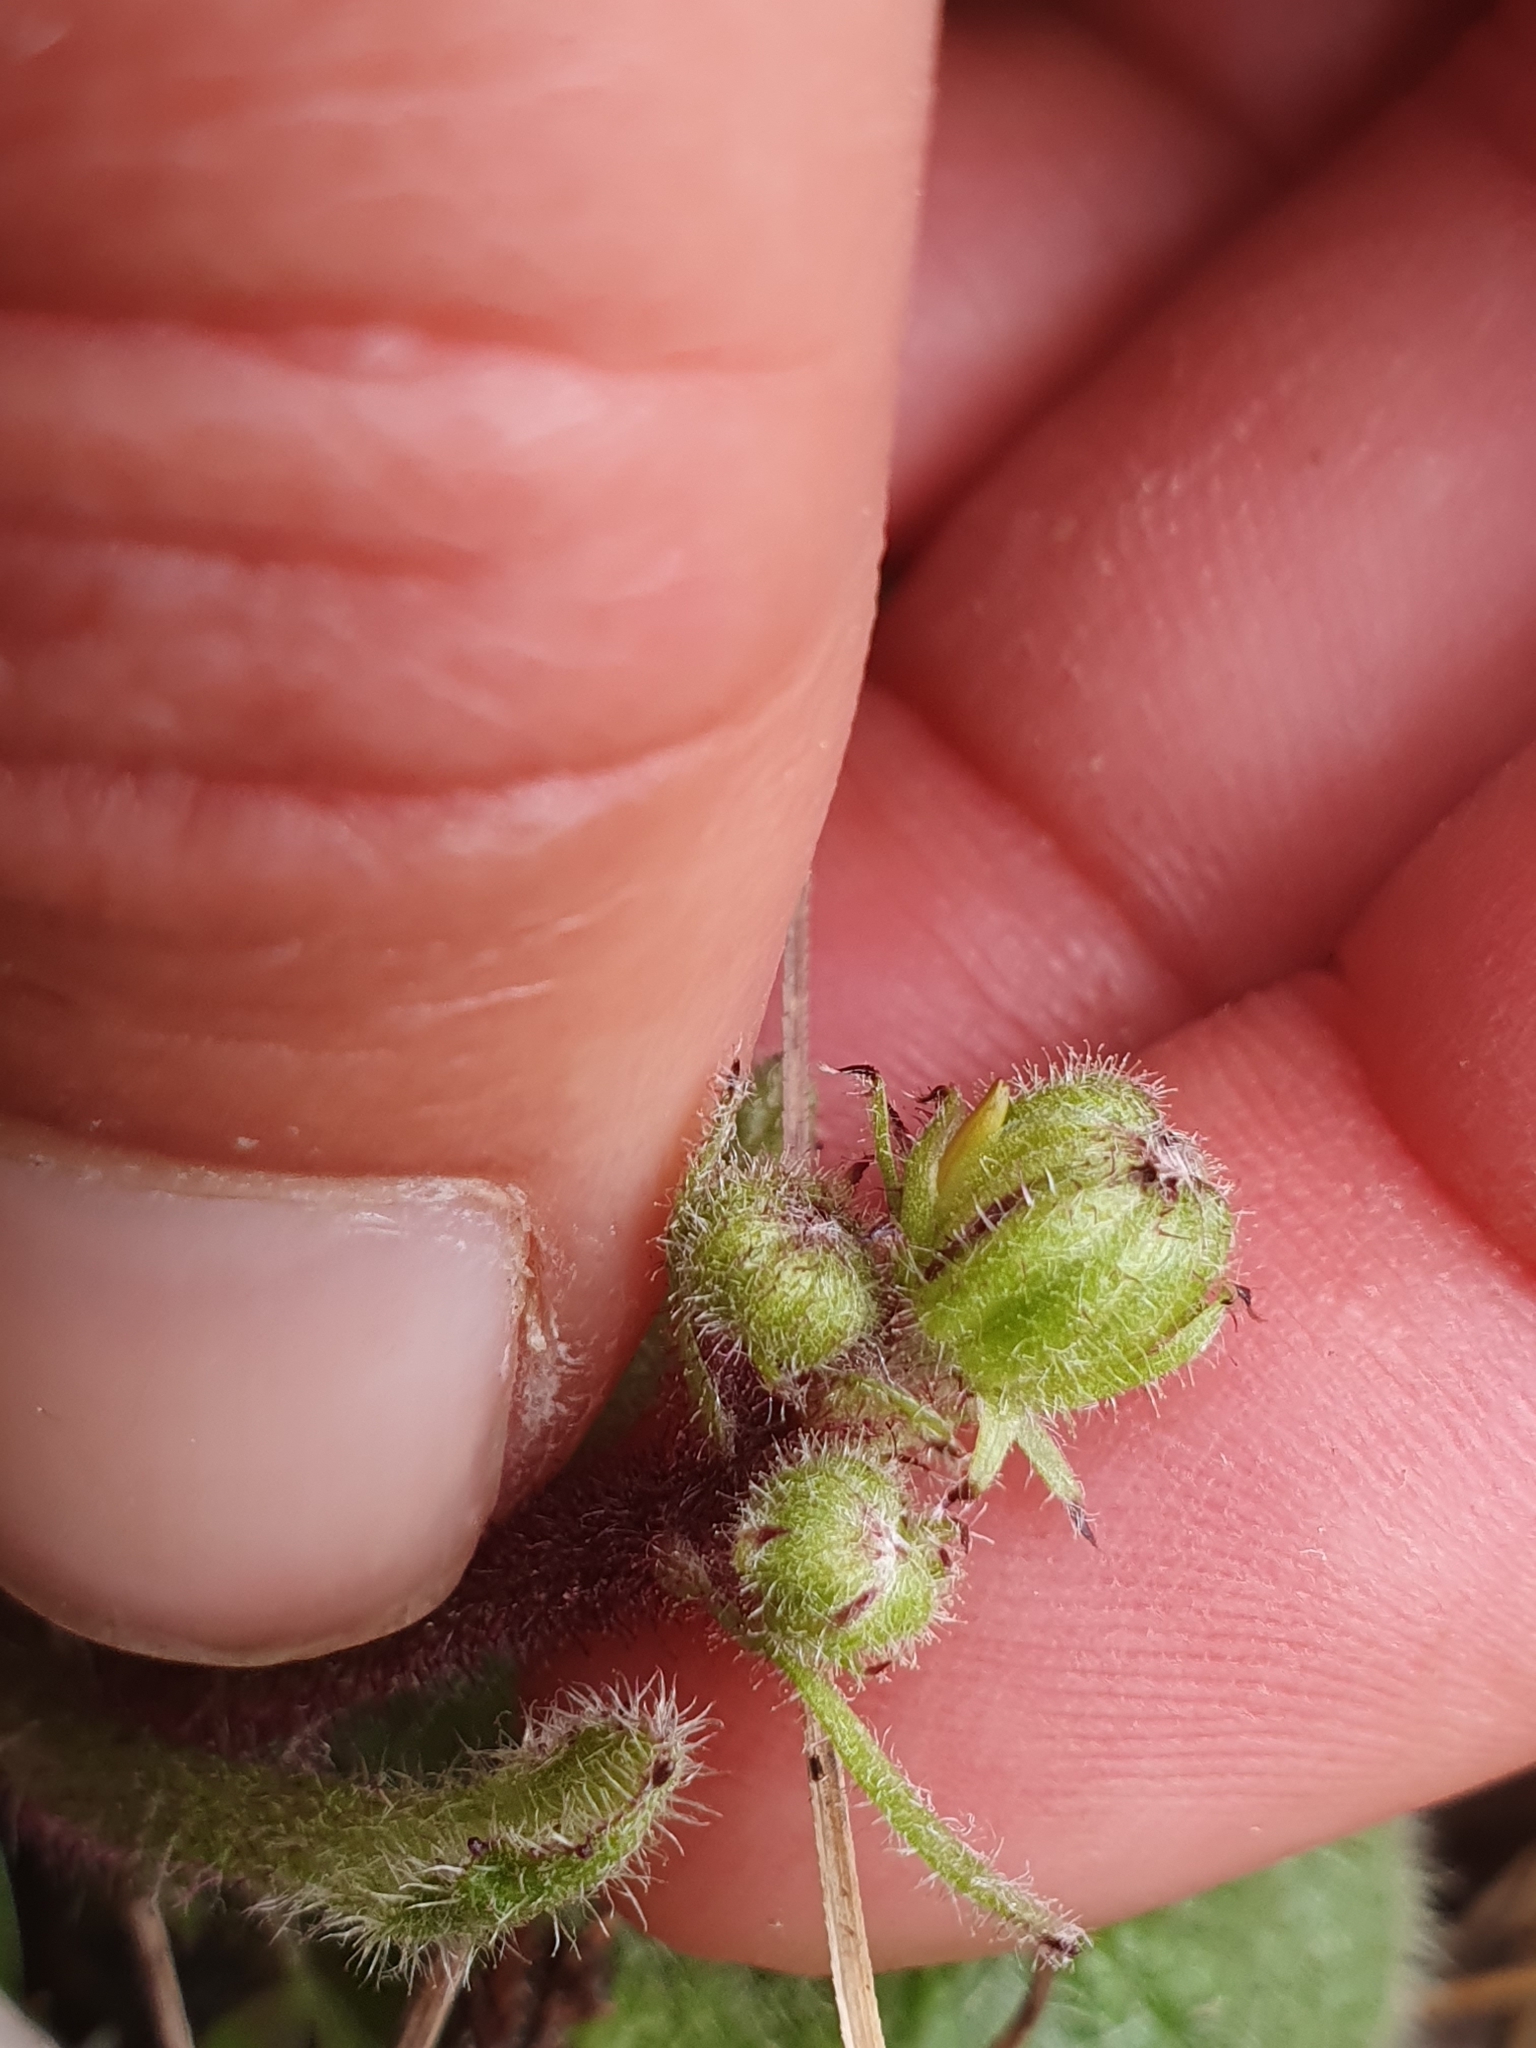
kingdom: Plantae
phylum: Tracheophyta
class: Magnoliopsida
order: Asterales
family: Asteraceae
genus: Brachyglottis
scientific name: Brachyglottis lagopus
